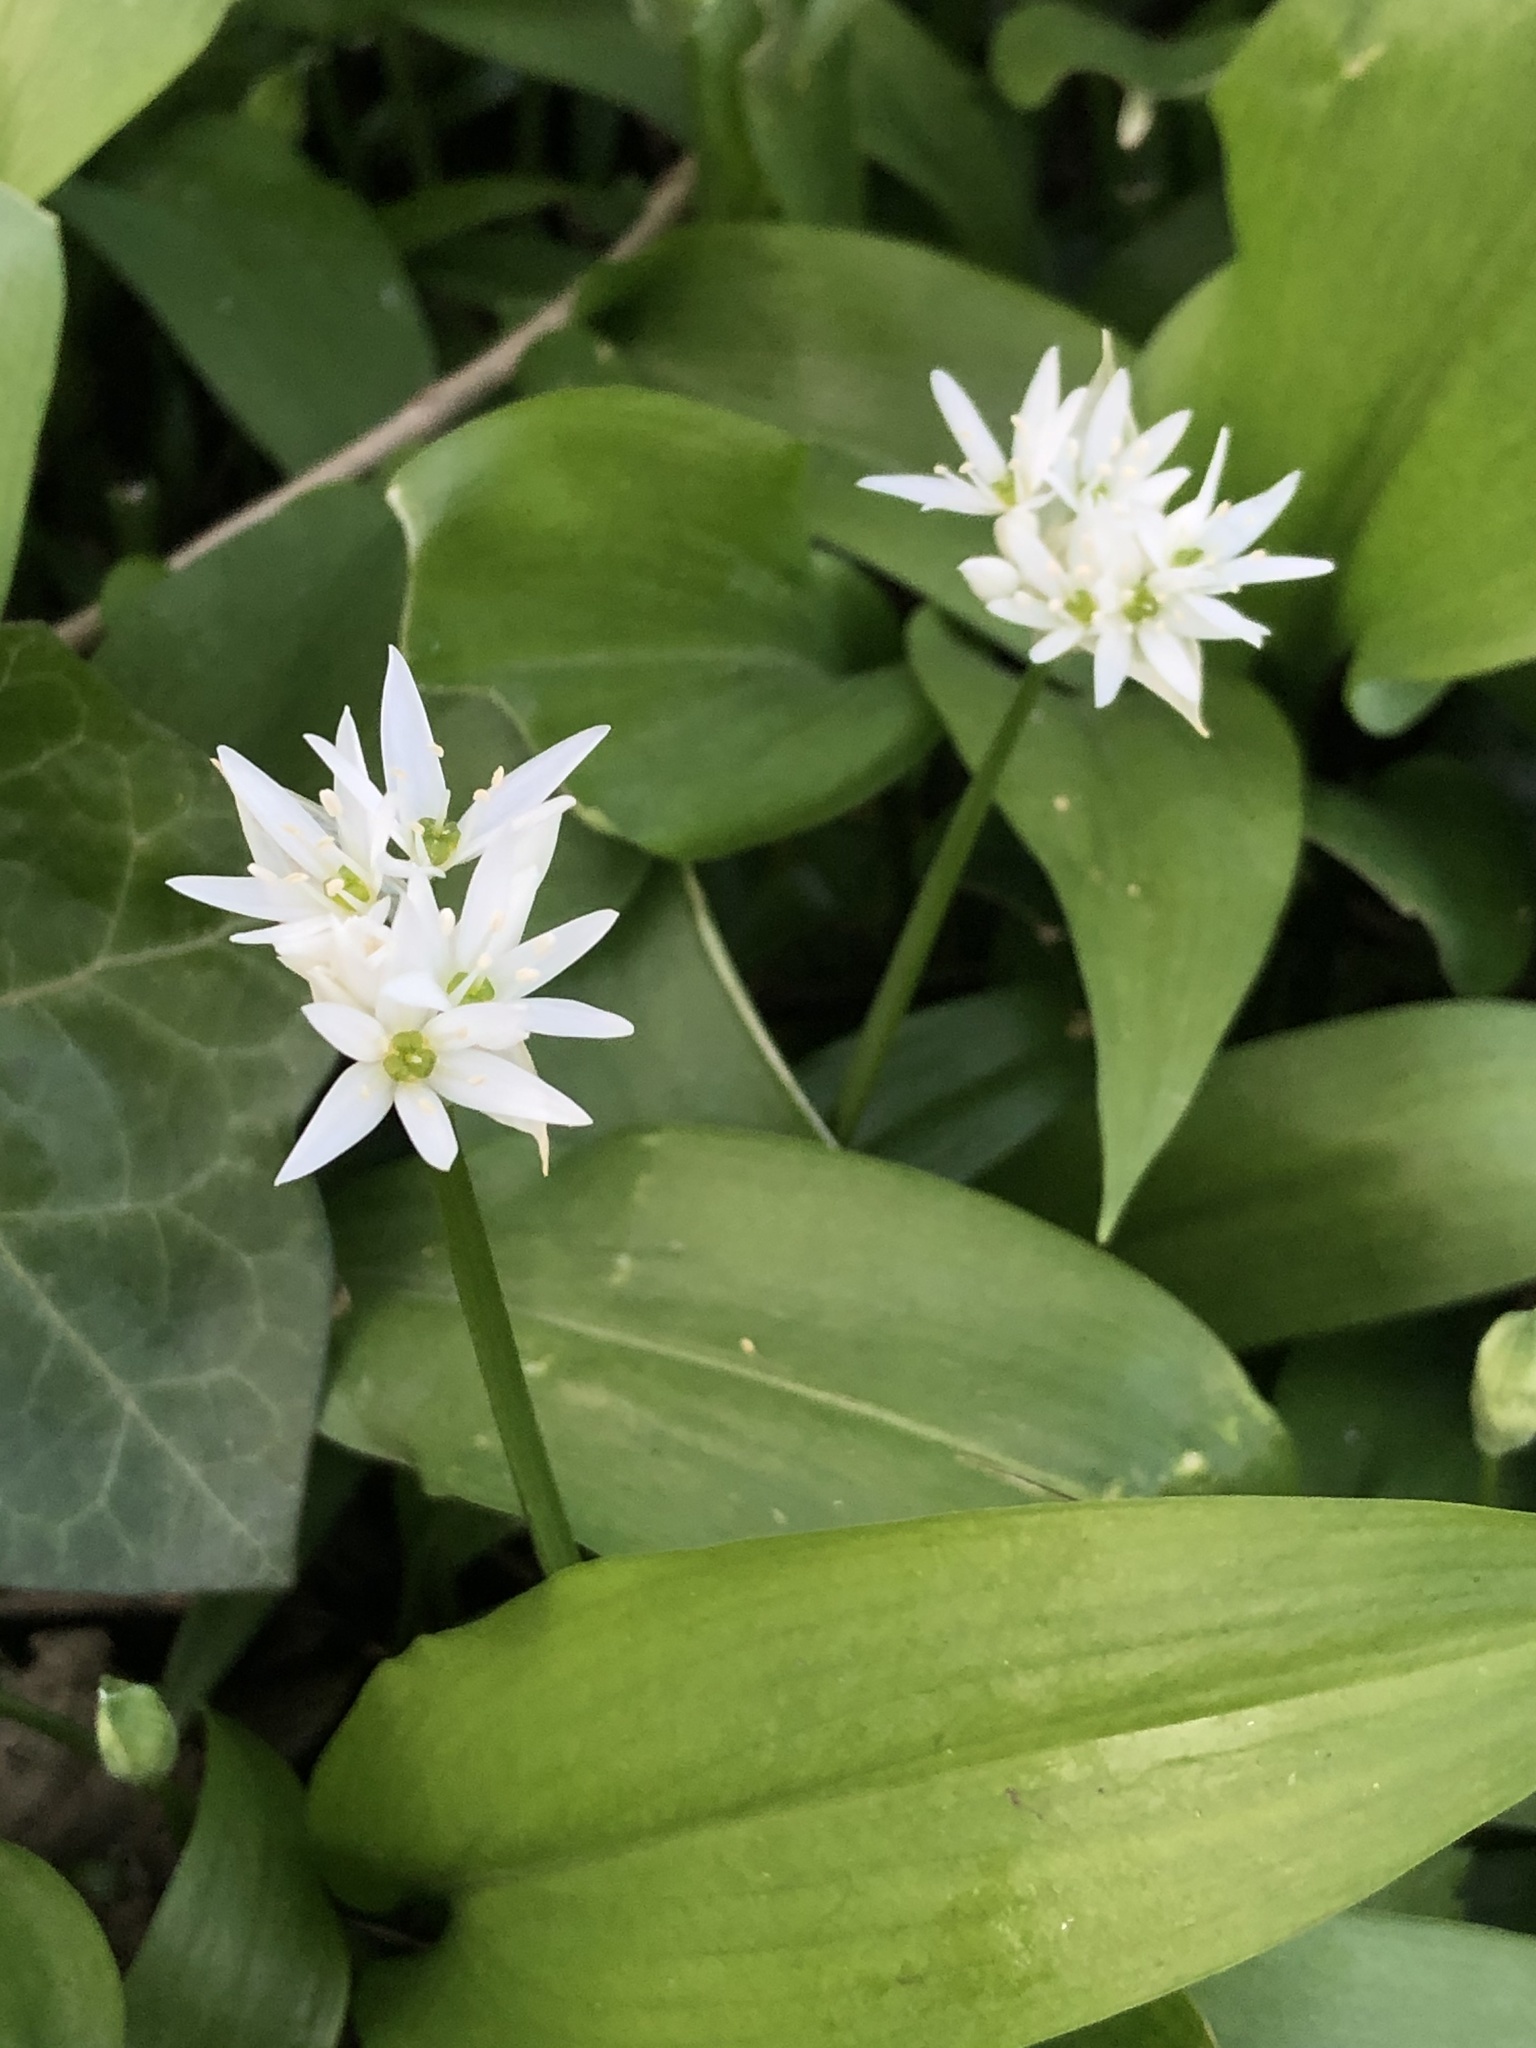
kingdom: Plantae
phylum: Tracheophyta
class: Liliopsida
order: Asparagales
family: Amaryllidaceae
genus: Allium
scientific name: Allium ursinum
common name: Ramsons
